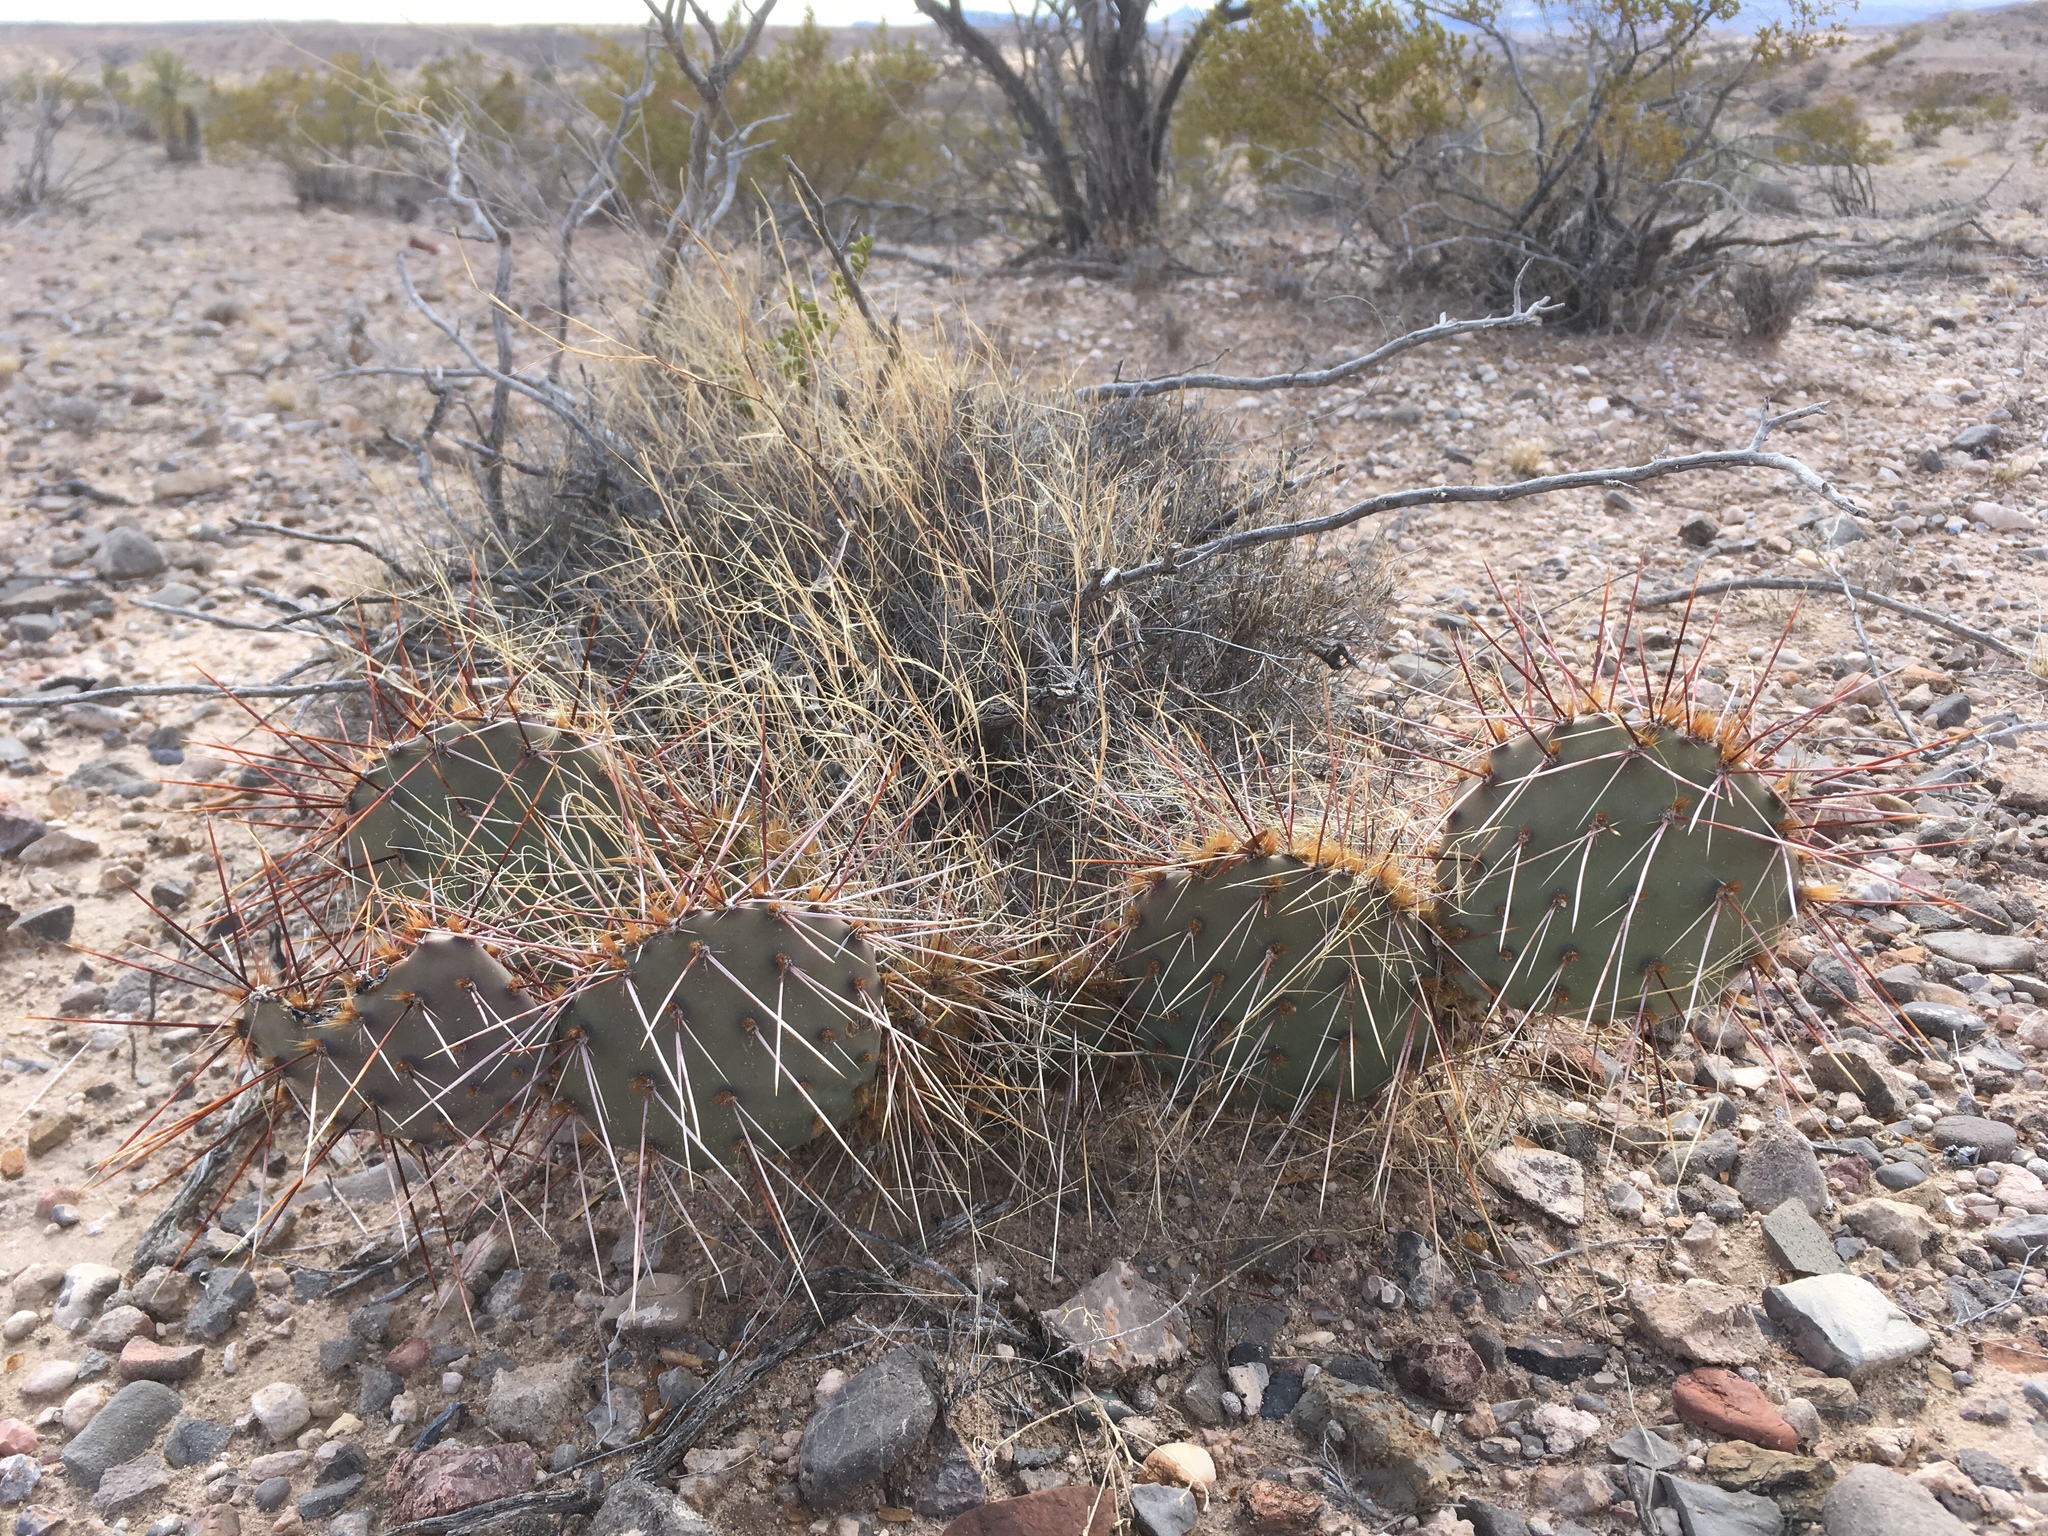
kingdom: Plantae
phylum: Tracheophyta
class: Magnoliopsida
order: Caryophyllales
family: Cactaceae
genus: Opuntia
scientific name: Opuntia phaeacantha
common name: New mexico prickly-pear
